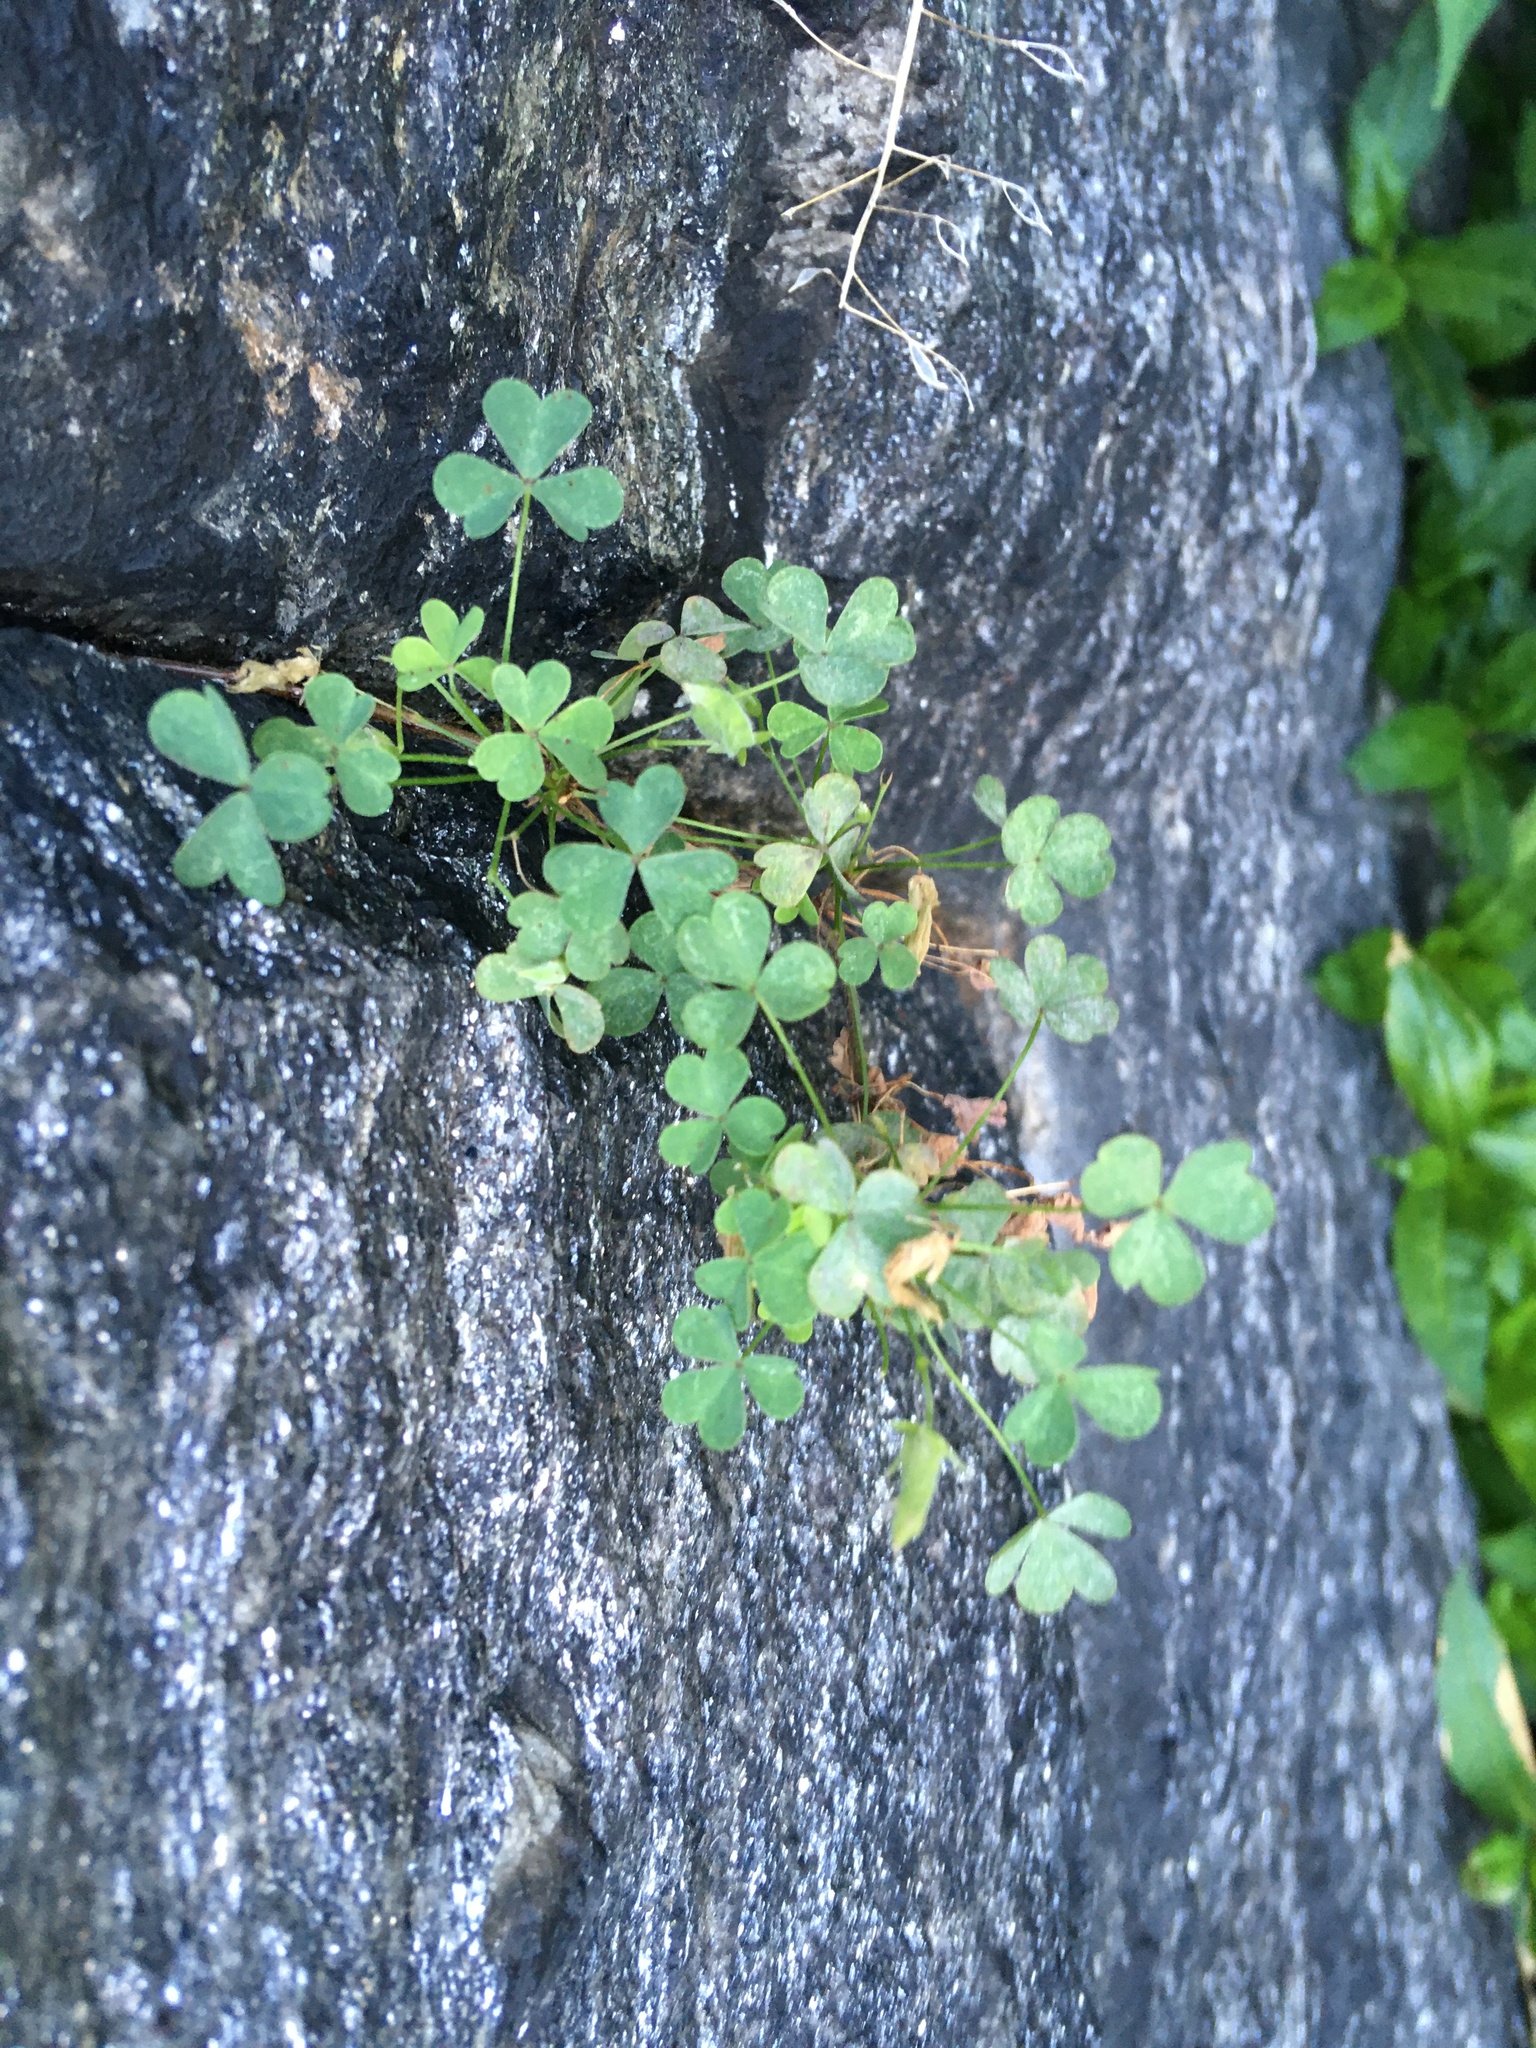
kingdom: Plantae
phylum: Tracheophyta
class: Magnoliopsida
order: Oxalidales
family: Oxalidaceae
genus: Oxalis
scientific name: Oxalis corniculata
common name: Procumbent yellow-sorrel
